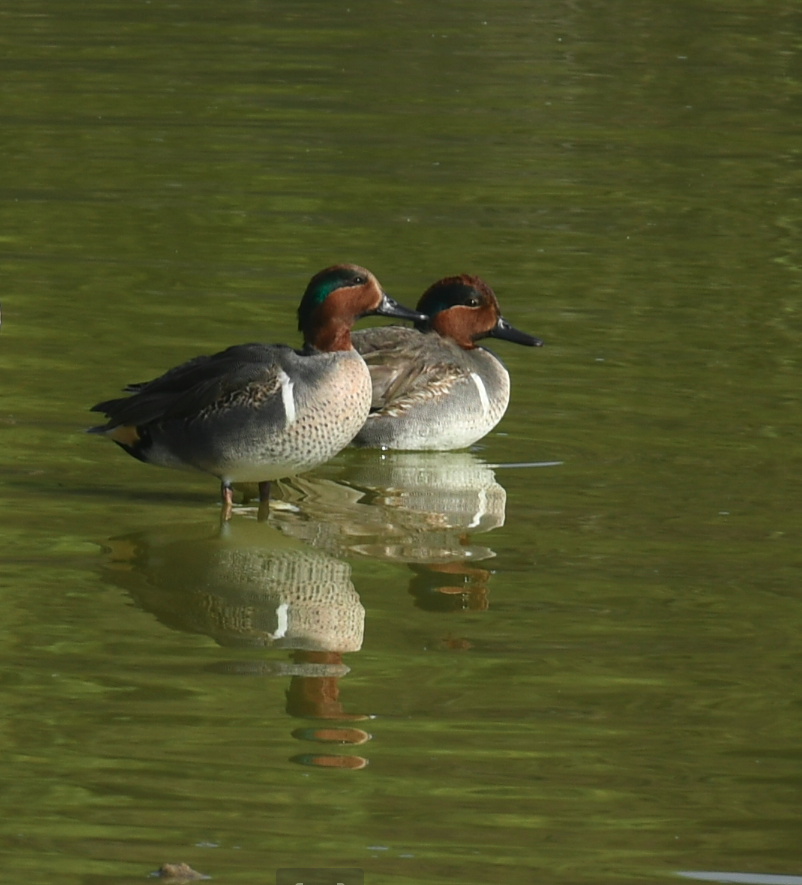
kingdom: Animalia
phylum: Chordata
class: Aves
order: Anseriformes
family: Anatidae
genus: Anas
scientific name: Anas crecca
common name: Eurasian teal
